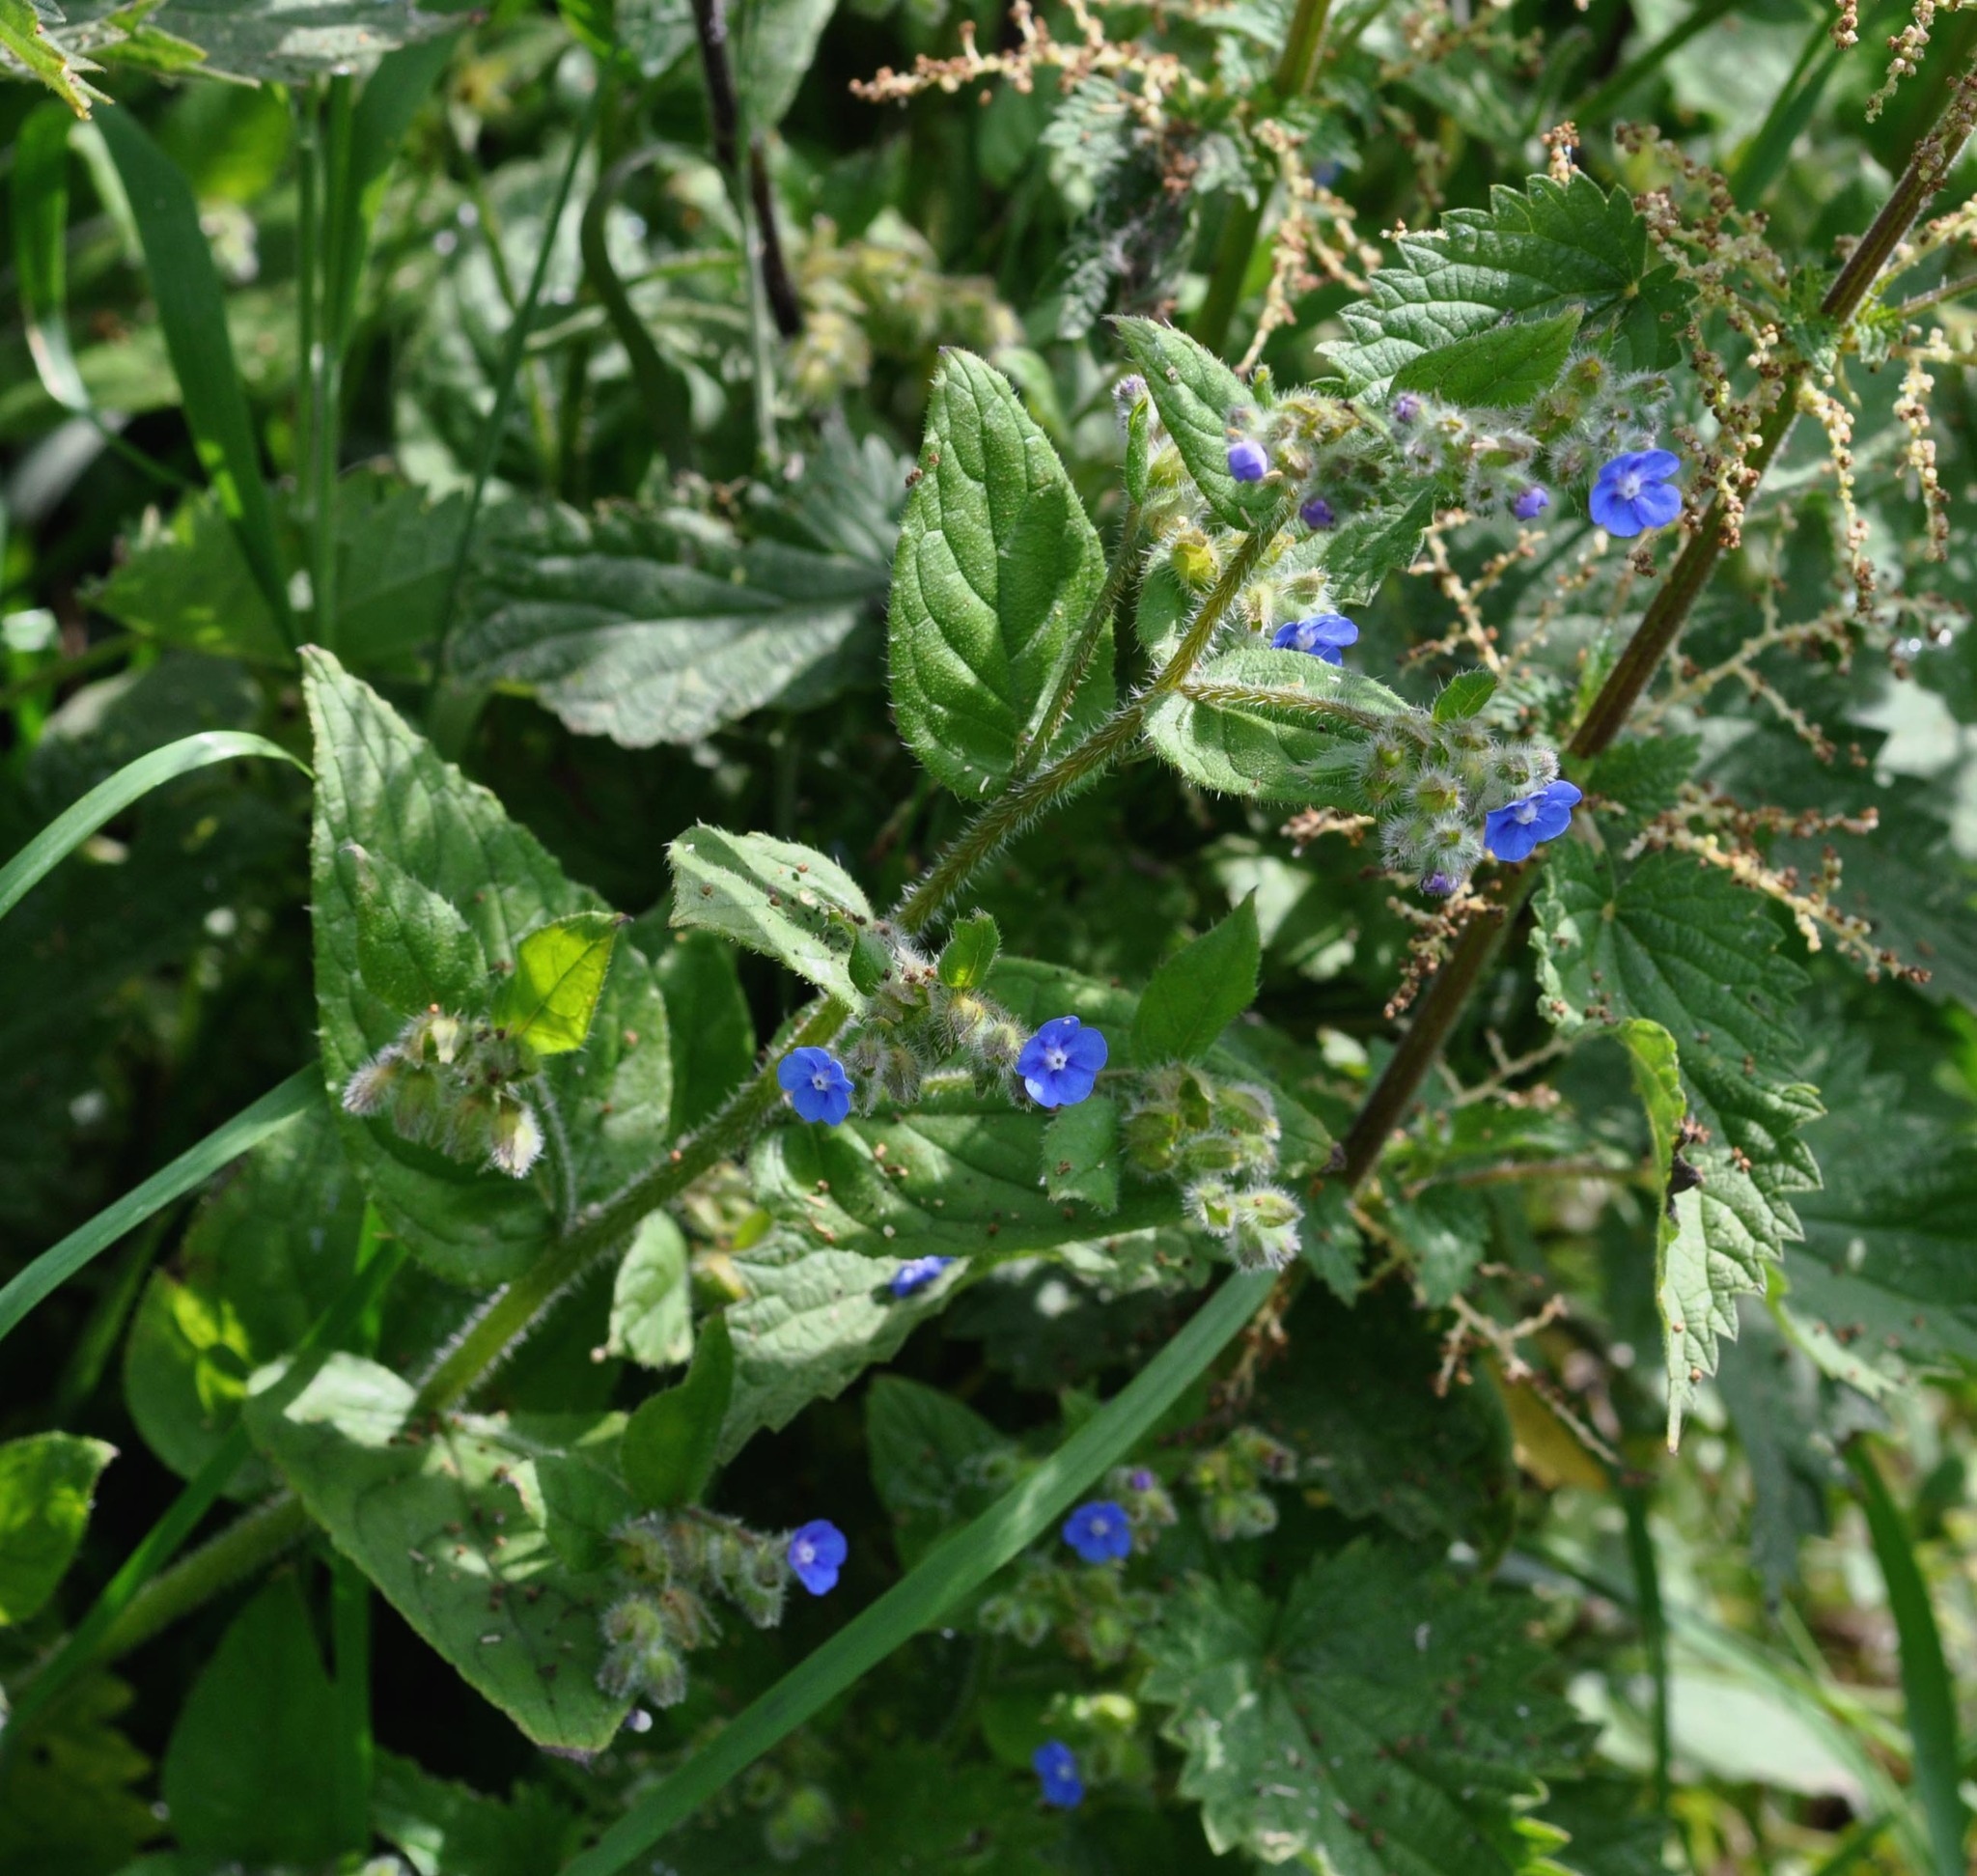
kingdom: Plantae
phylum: Tracheophyta
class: Magnoliopsida
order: Boraginales
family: Boraginaceae
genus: Pentaglottis
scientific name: Pentaglottis sempervirens
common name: Green alkanet
